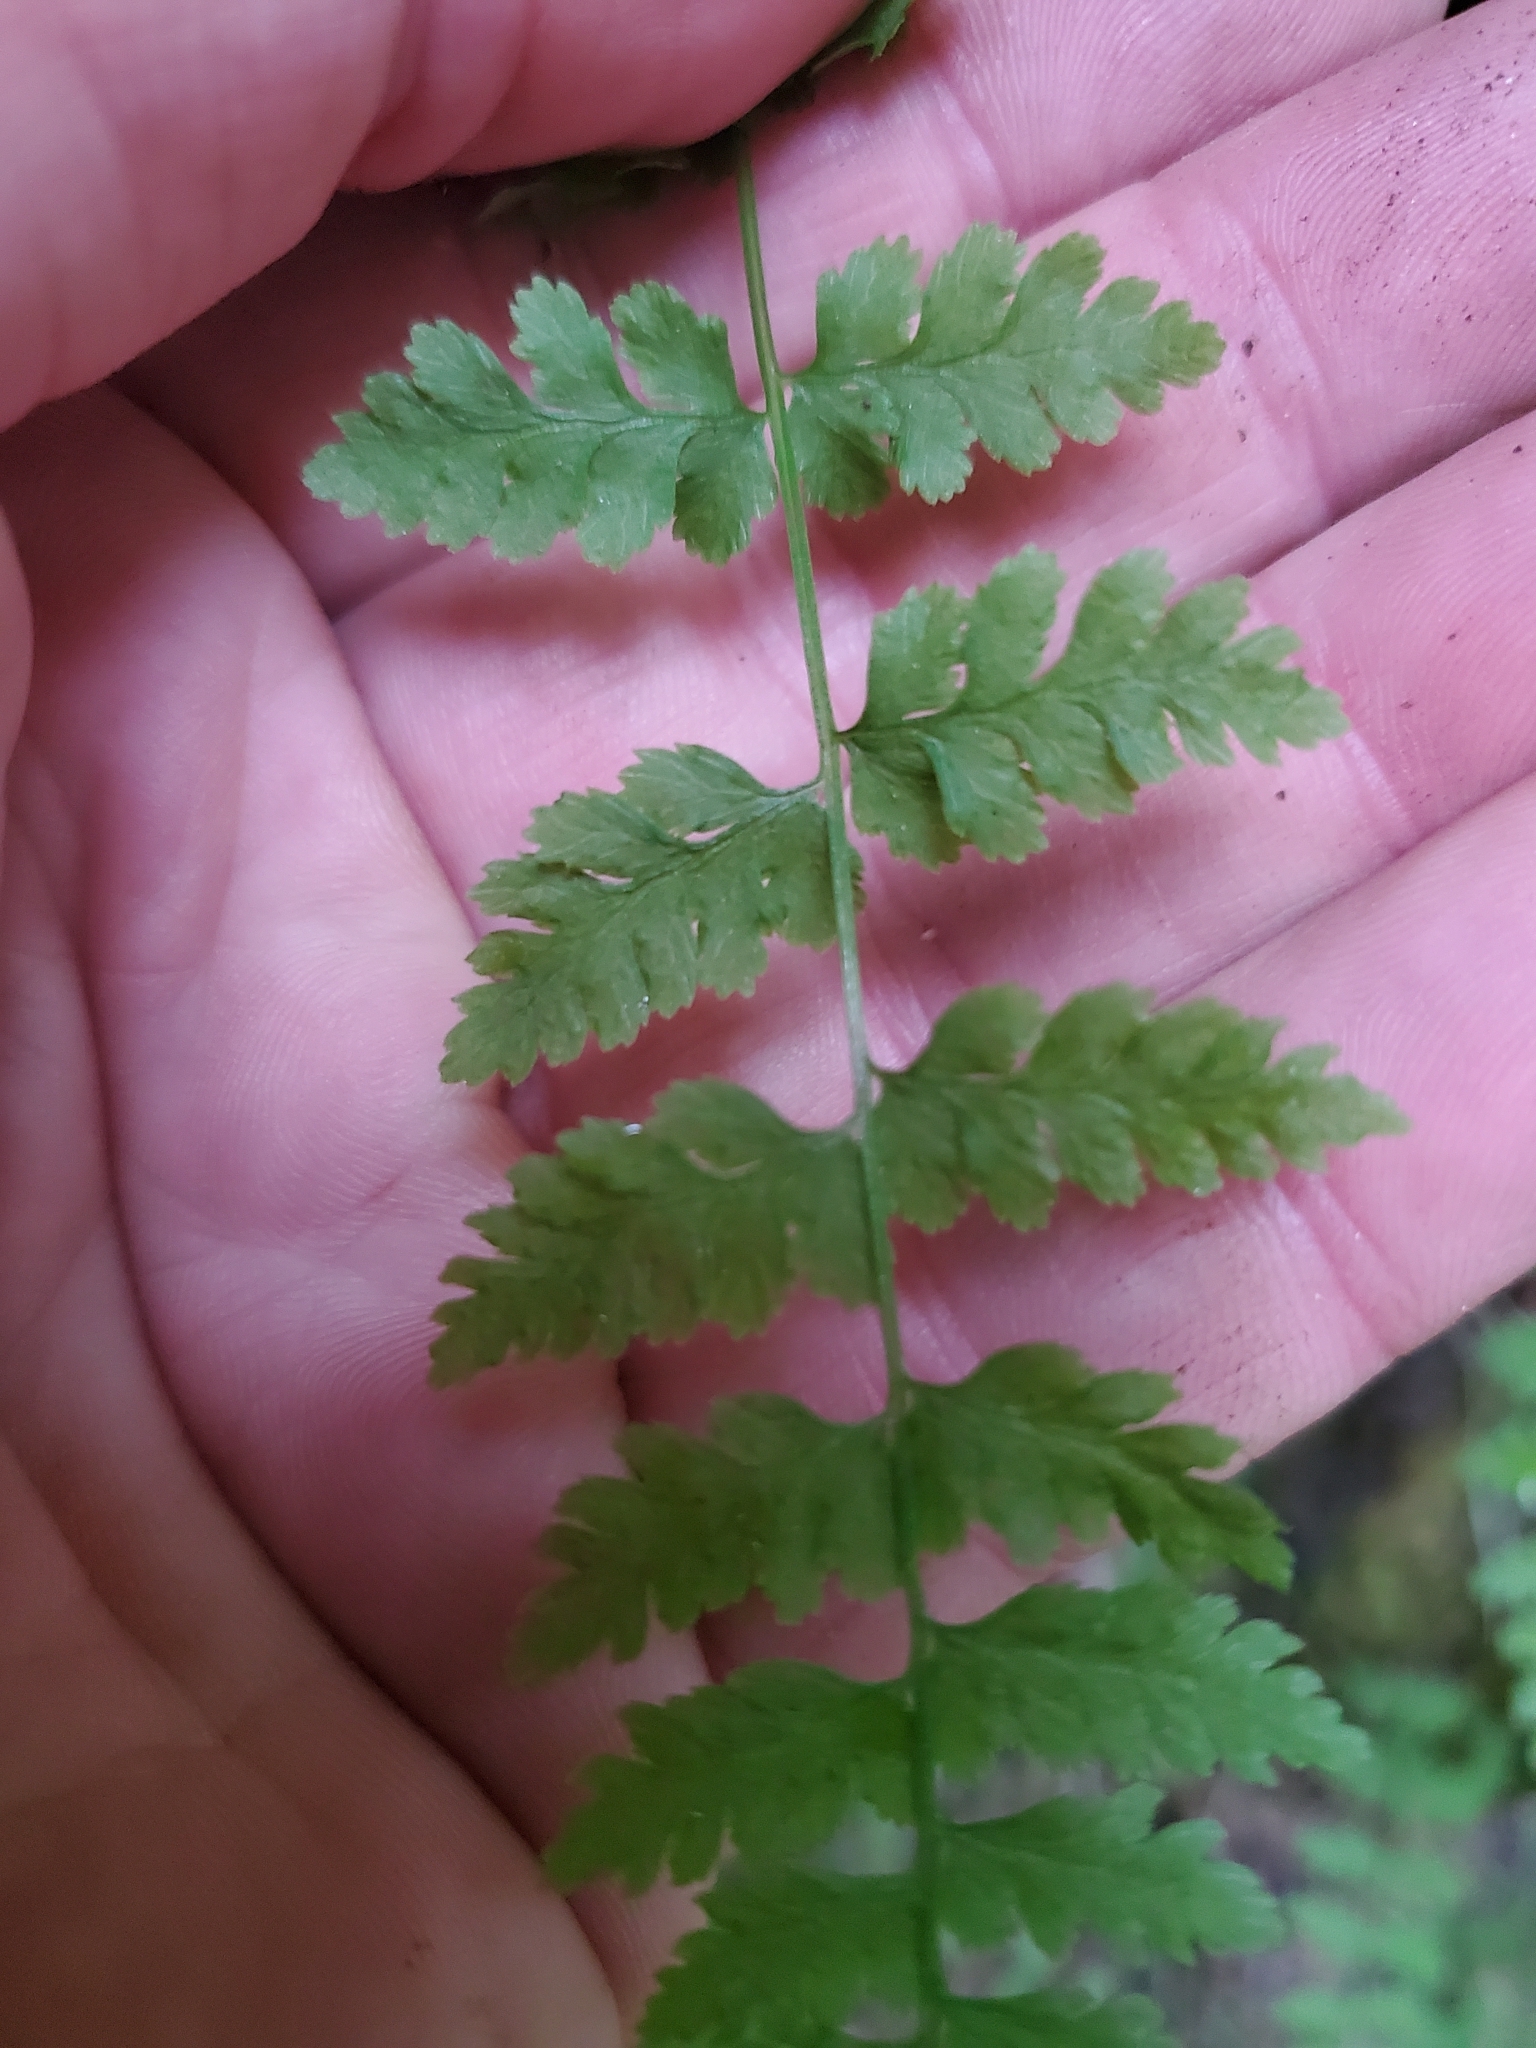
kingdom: Plantae
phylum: Tracheophyta
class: Polypodiopsida
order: Polypodiales
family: Cystopteridaceae
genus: Cystopteris
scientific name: Cystopteris fragilis
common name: Brittle bladder fern
